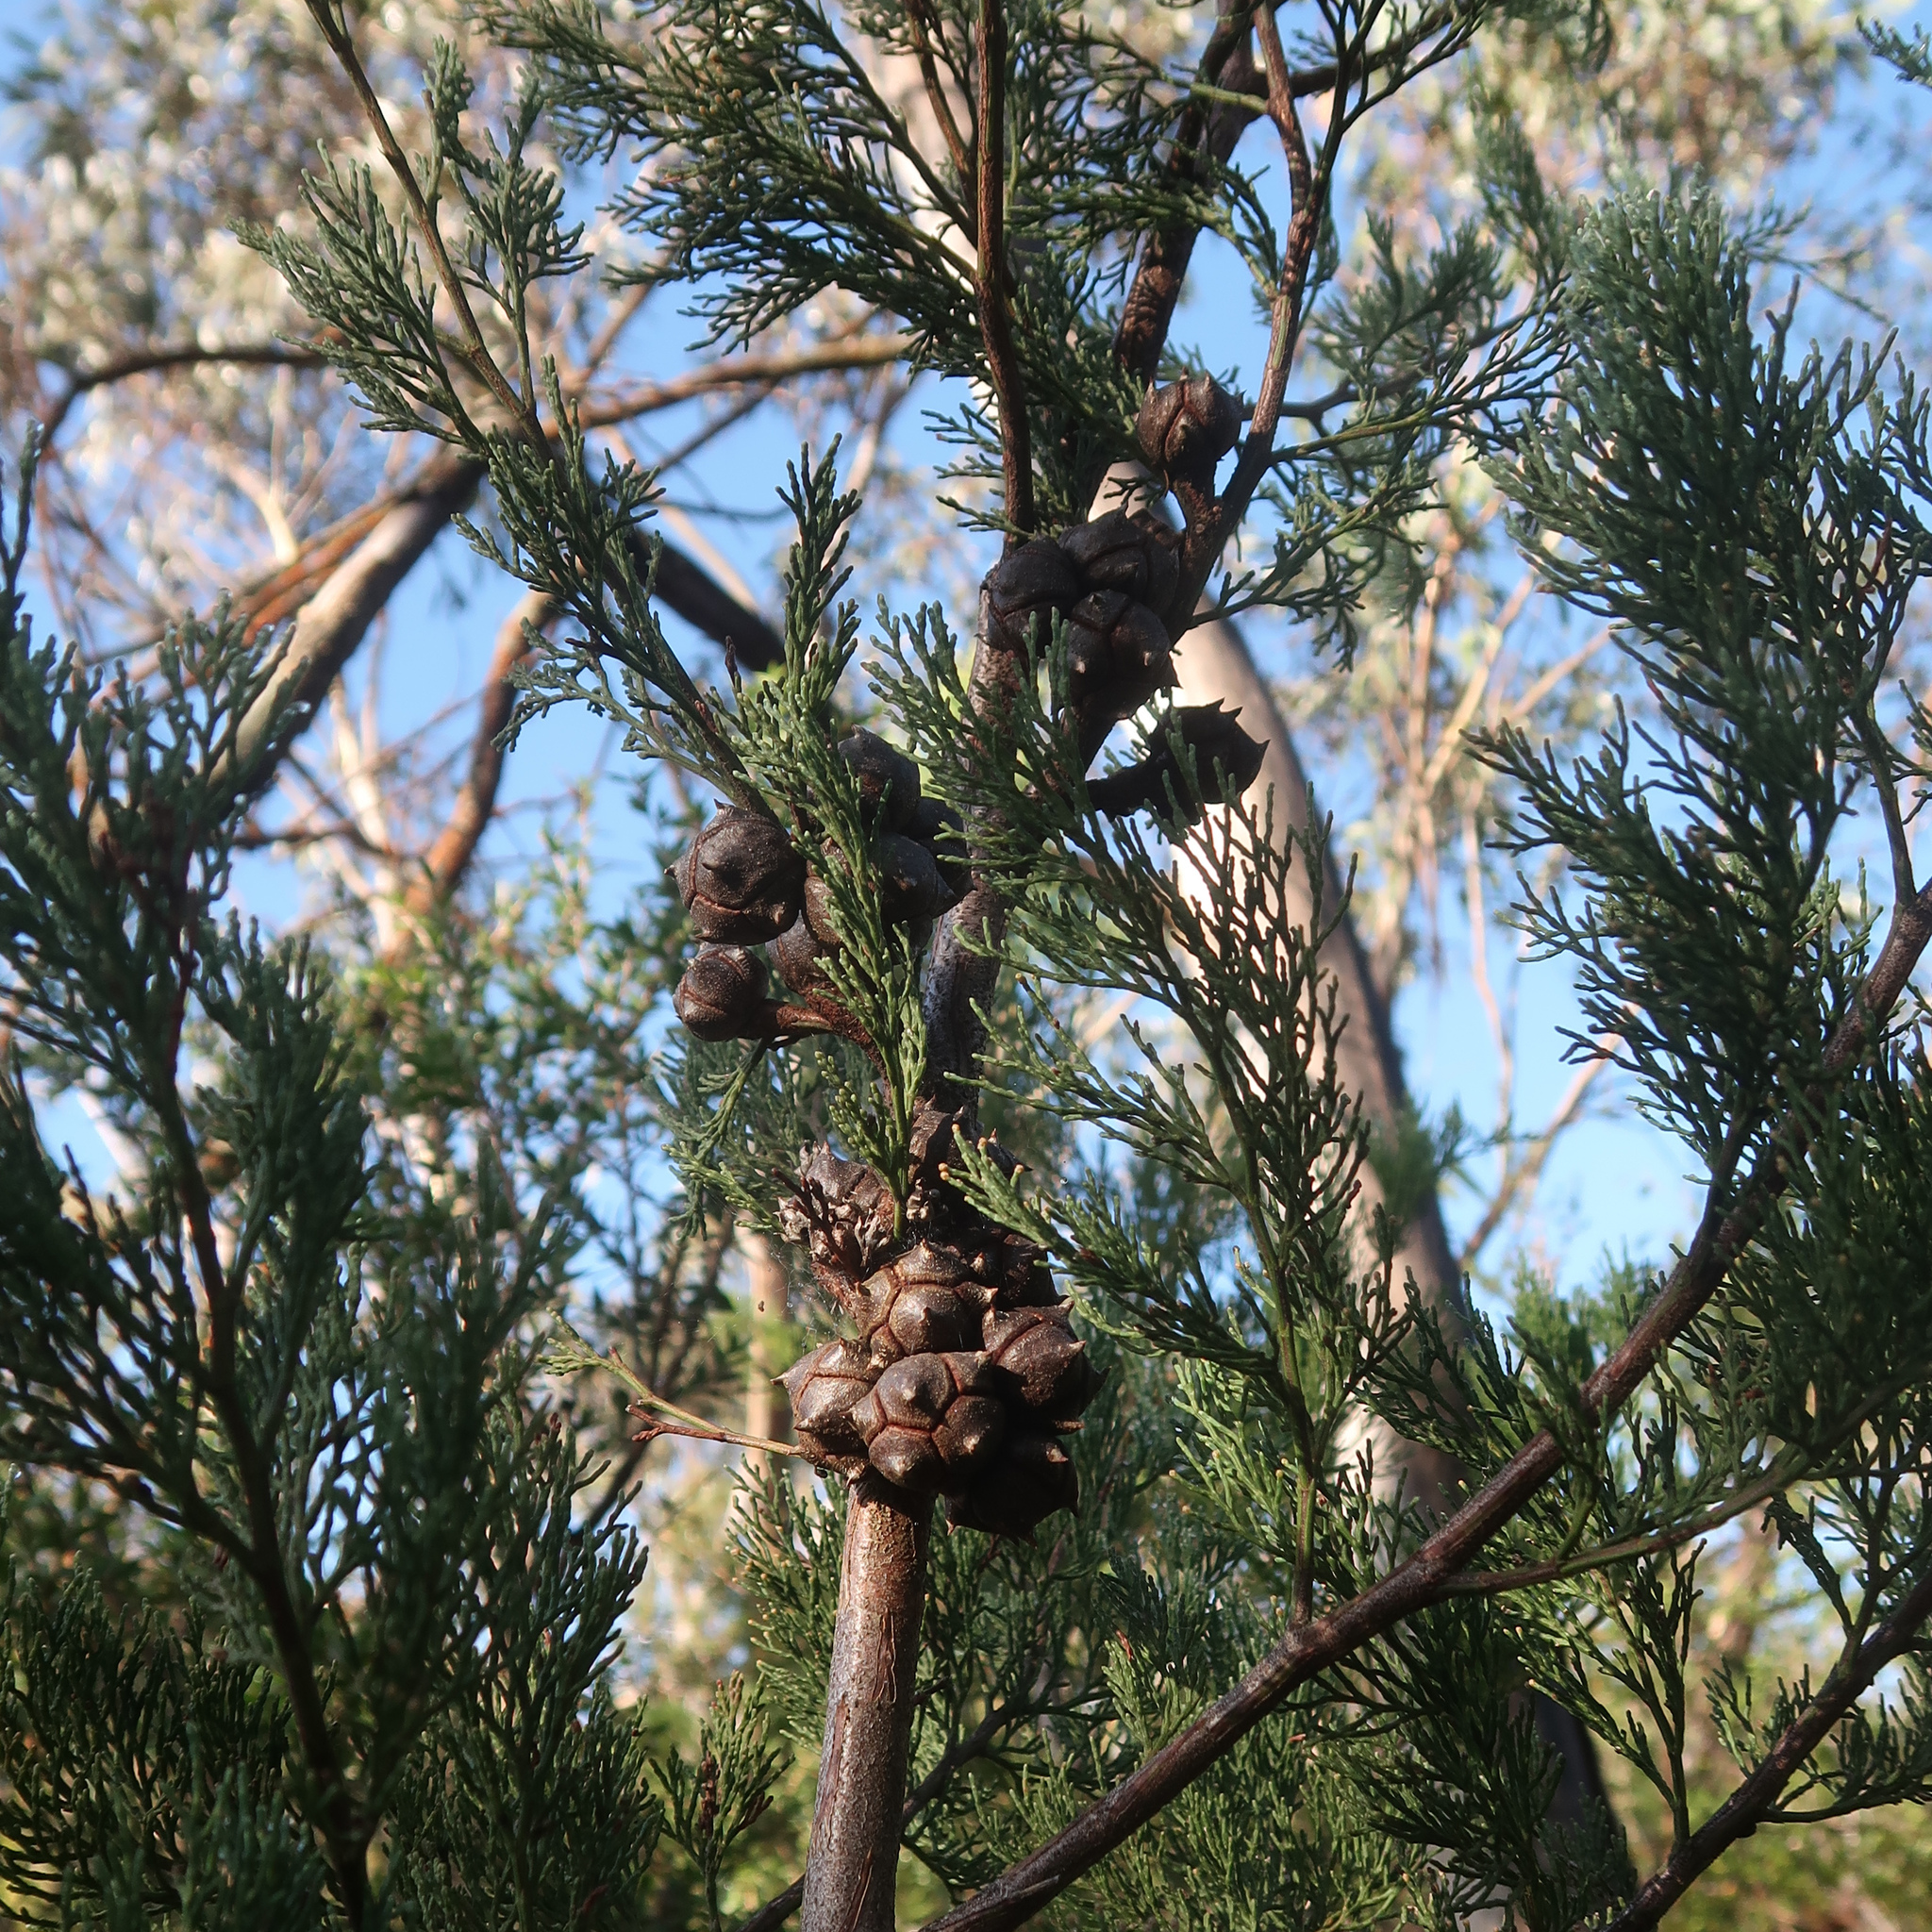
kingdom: Plantae
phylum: Tracheophyta
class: Pinopsida
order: Pinales
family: Cupressaceae
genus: Callitris
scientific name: Callitris rhomboidea
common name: Illawara mountain pine
